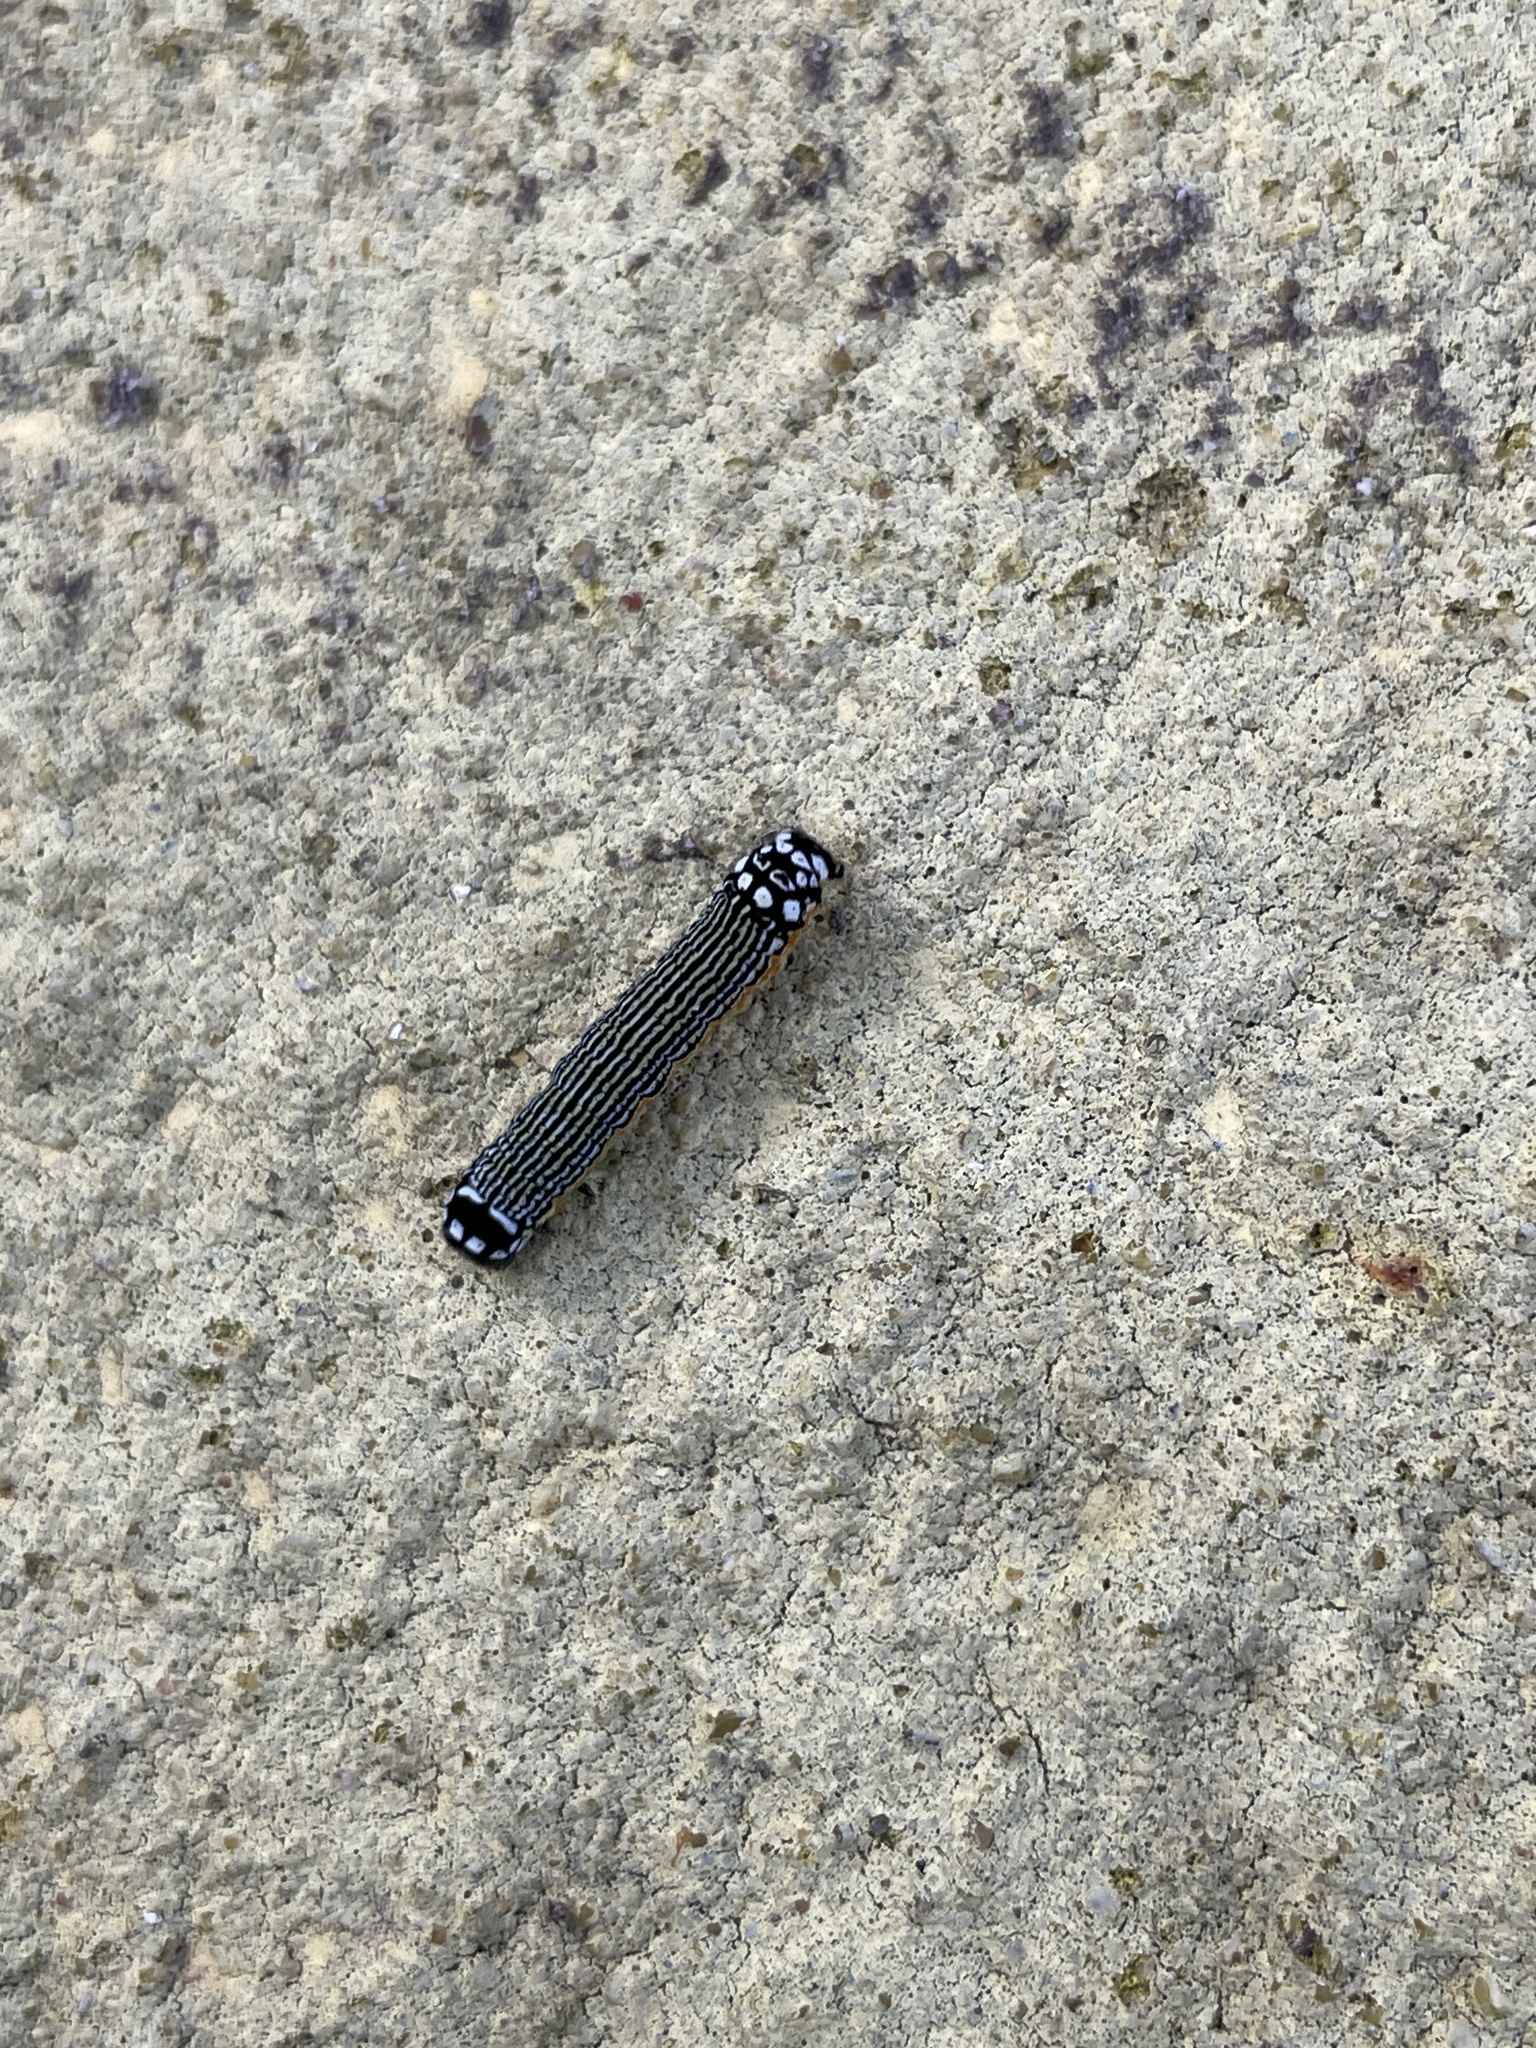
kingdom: Animalia
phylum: Arthropoda
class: Insecta
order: Lepidoptera
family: Noctuidae
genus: Phosphila
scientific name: Phosphila turbulenta
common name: Turbulent phosphila moth
